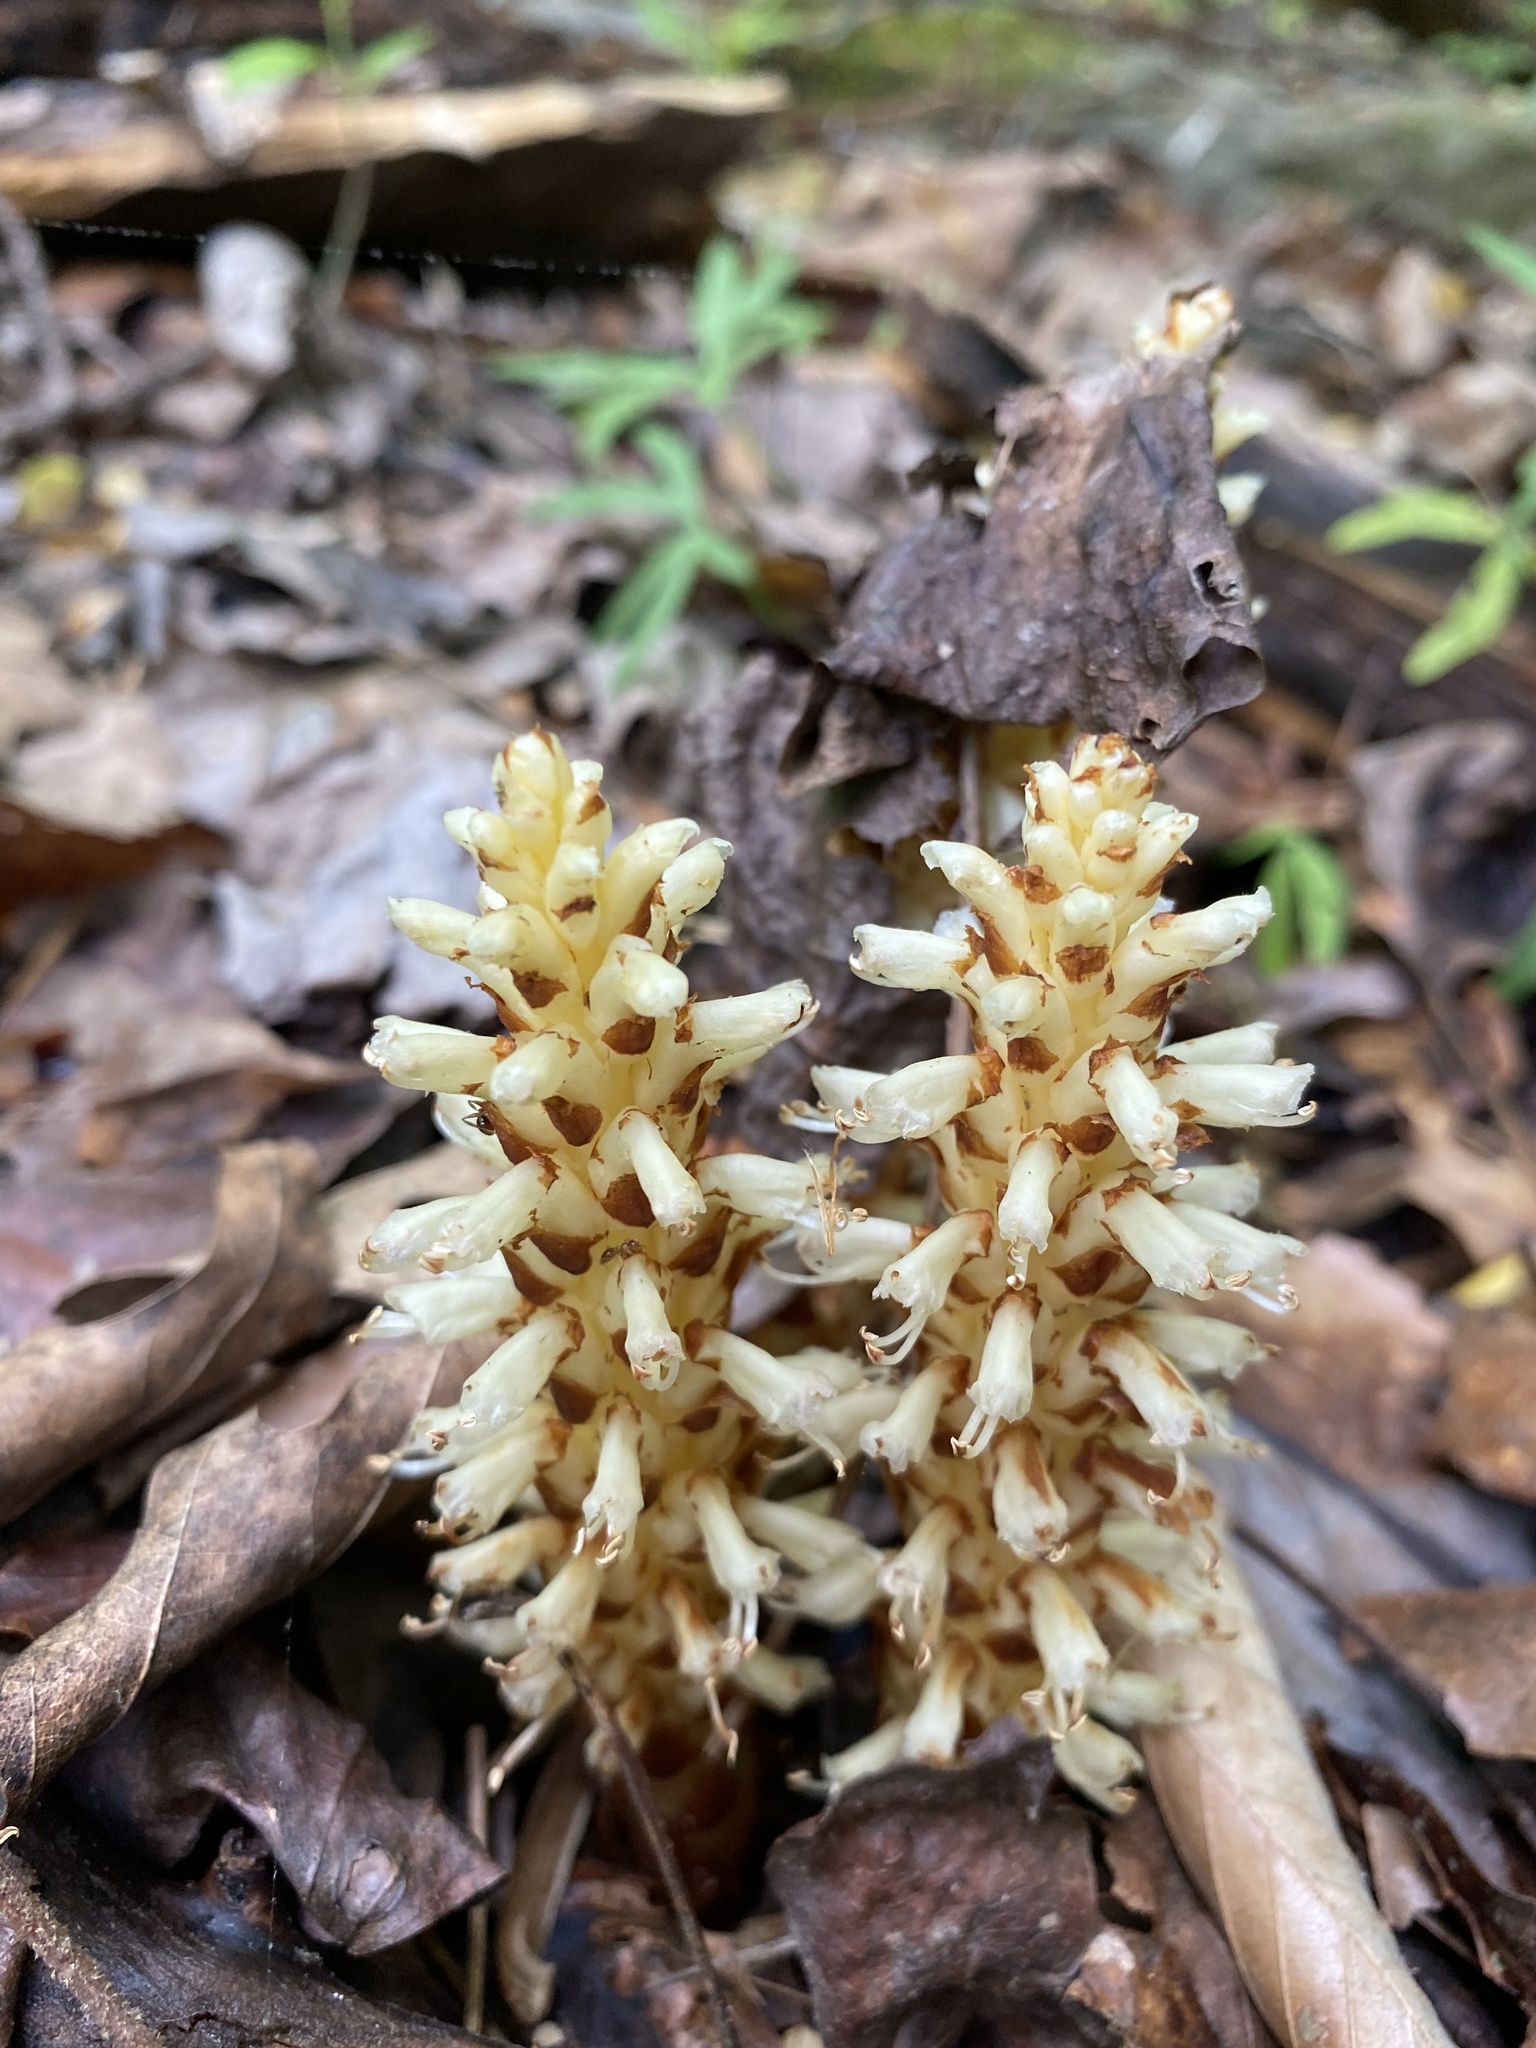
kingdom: Plantae
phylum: Tracheophyta
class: Magnoliopsida
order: Lamiales
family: Orobanchaceae
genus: Conopholis
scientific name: Conopholis americana
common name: American cancer-root
